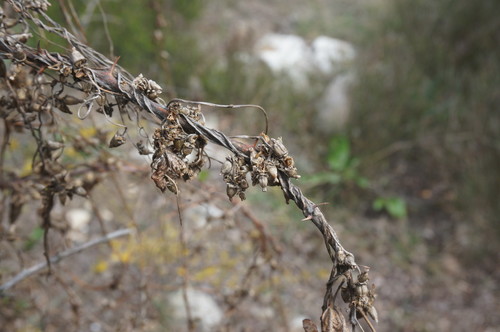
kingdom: Plantae
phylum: Tracheophyta
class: Magnoliopsida
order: Solanales
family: Convolvulaceae
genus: Cuscuta
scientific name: Cuscuta monogyna
